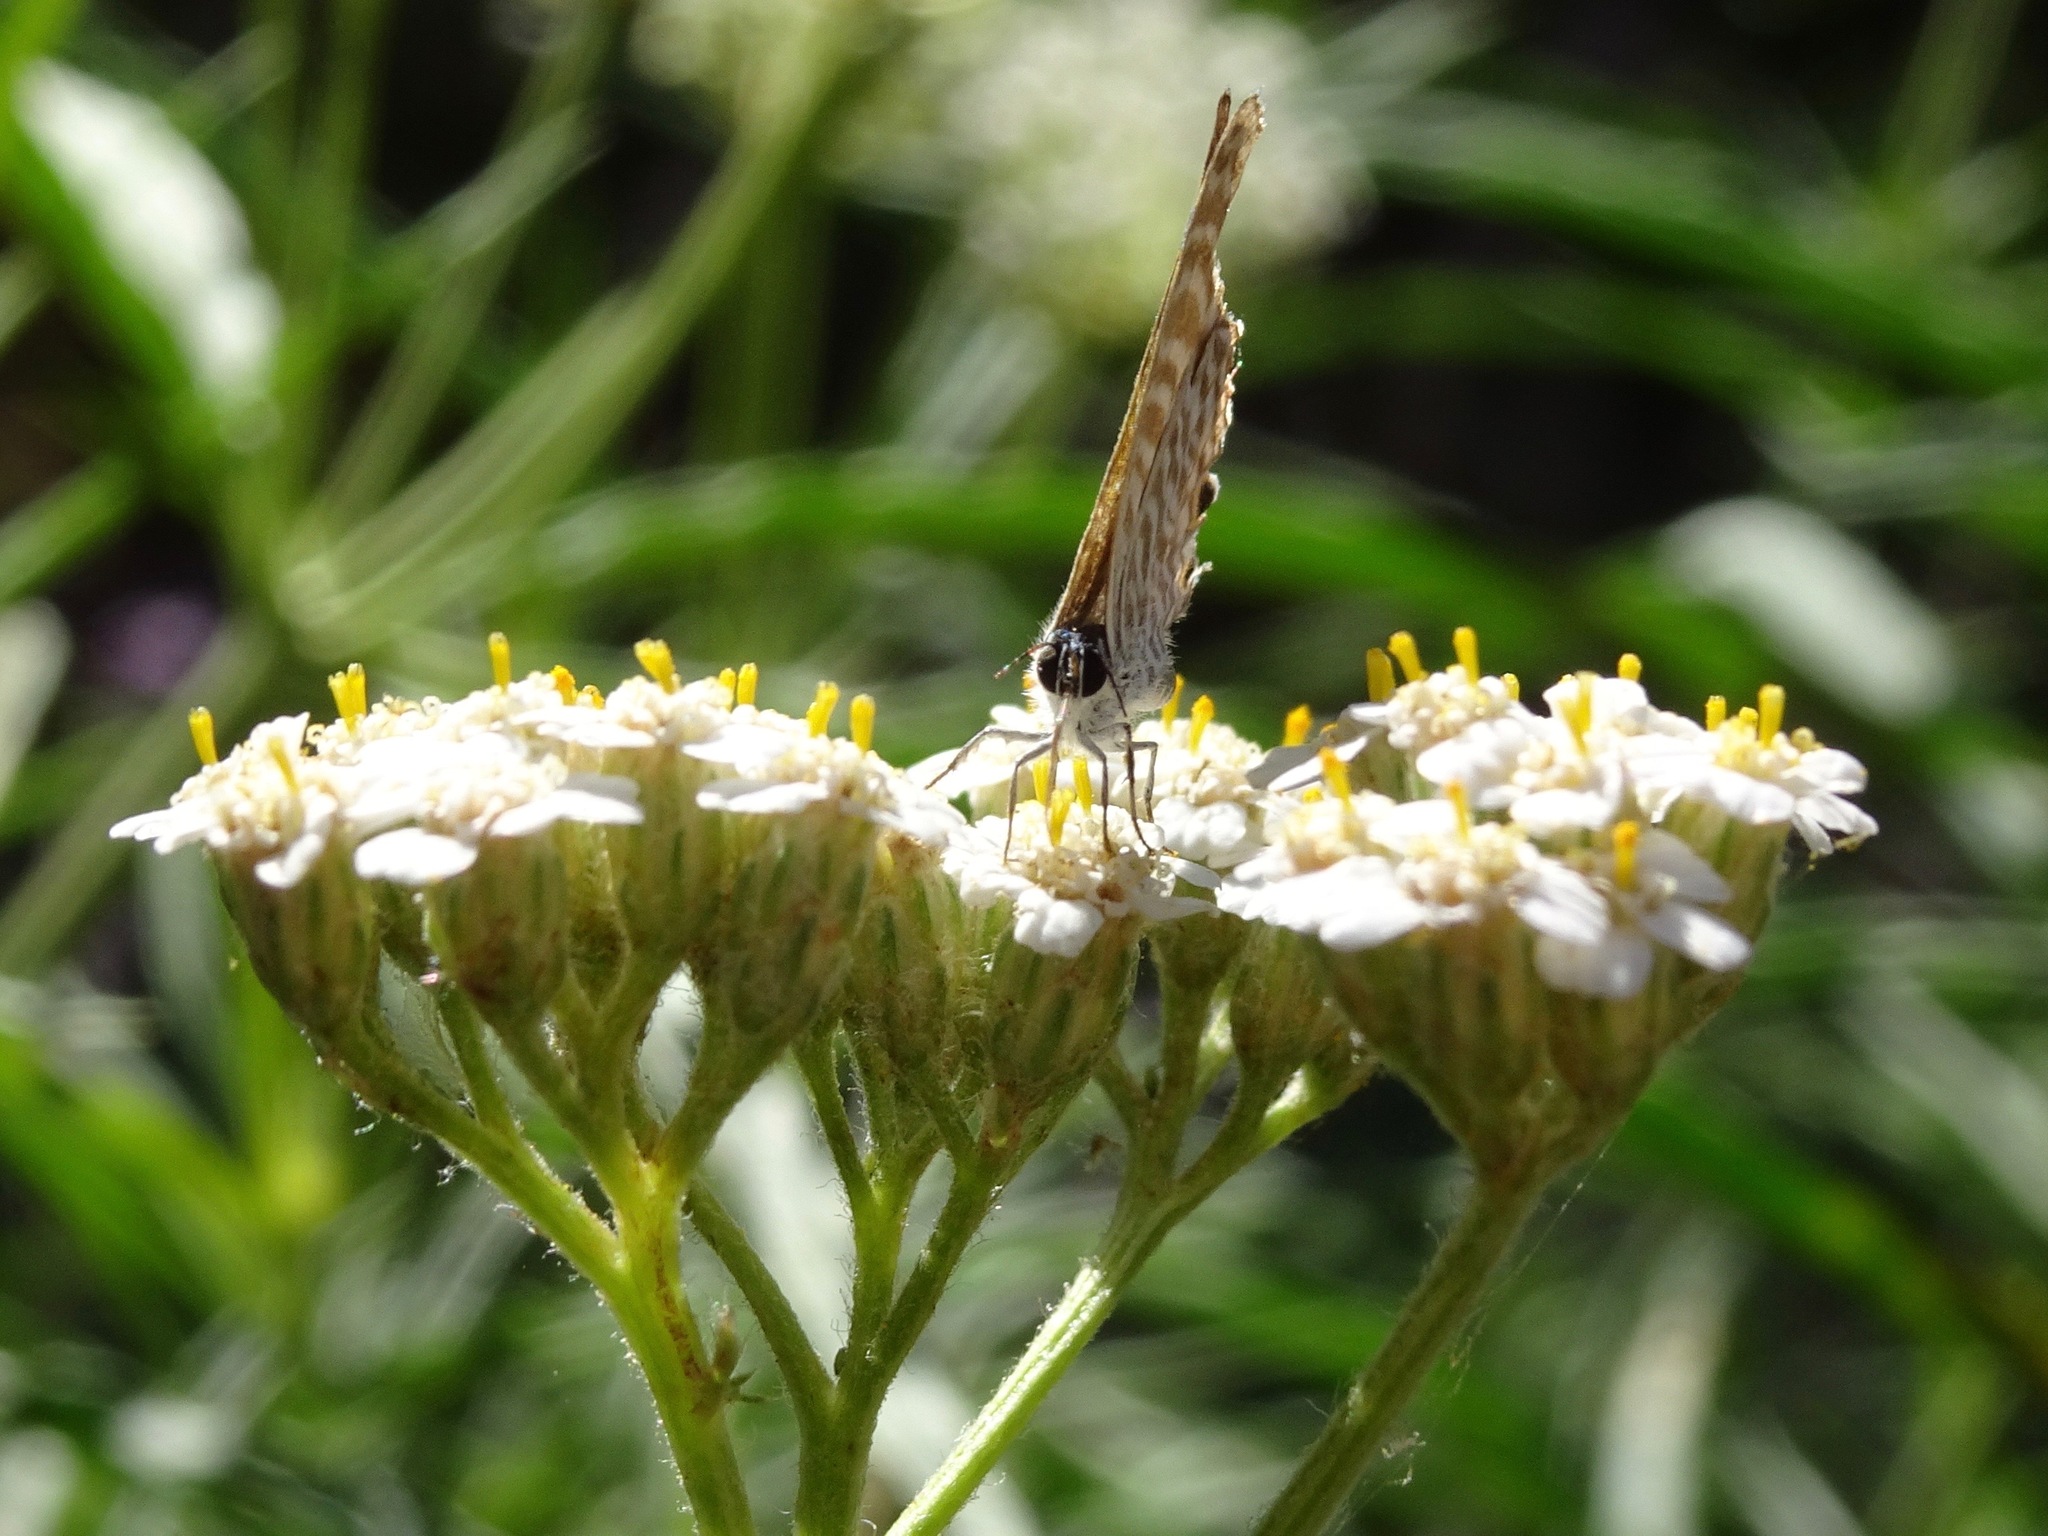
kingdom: Animalia
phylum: Arthropoda
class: Insecta
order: Lepidoptera
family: Lycaenidae
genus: Leptotes
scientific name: Leptotes marina
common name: Marine blue
